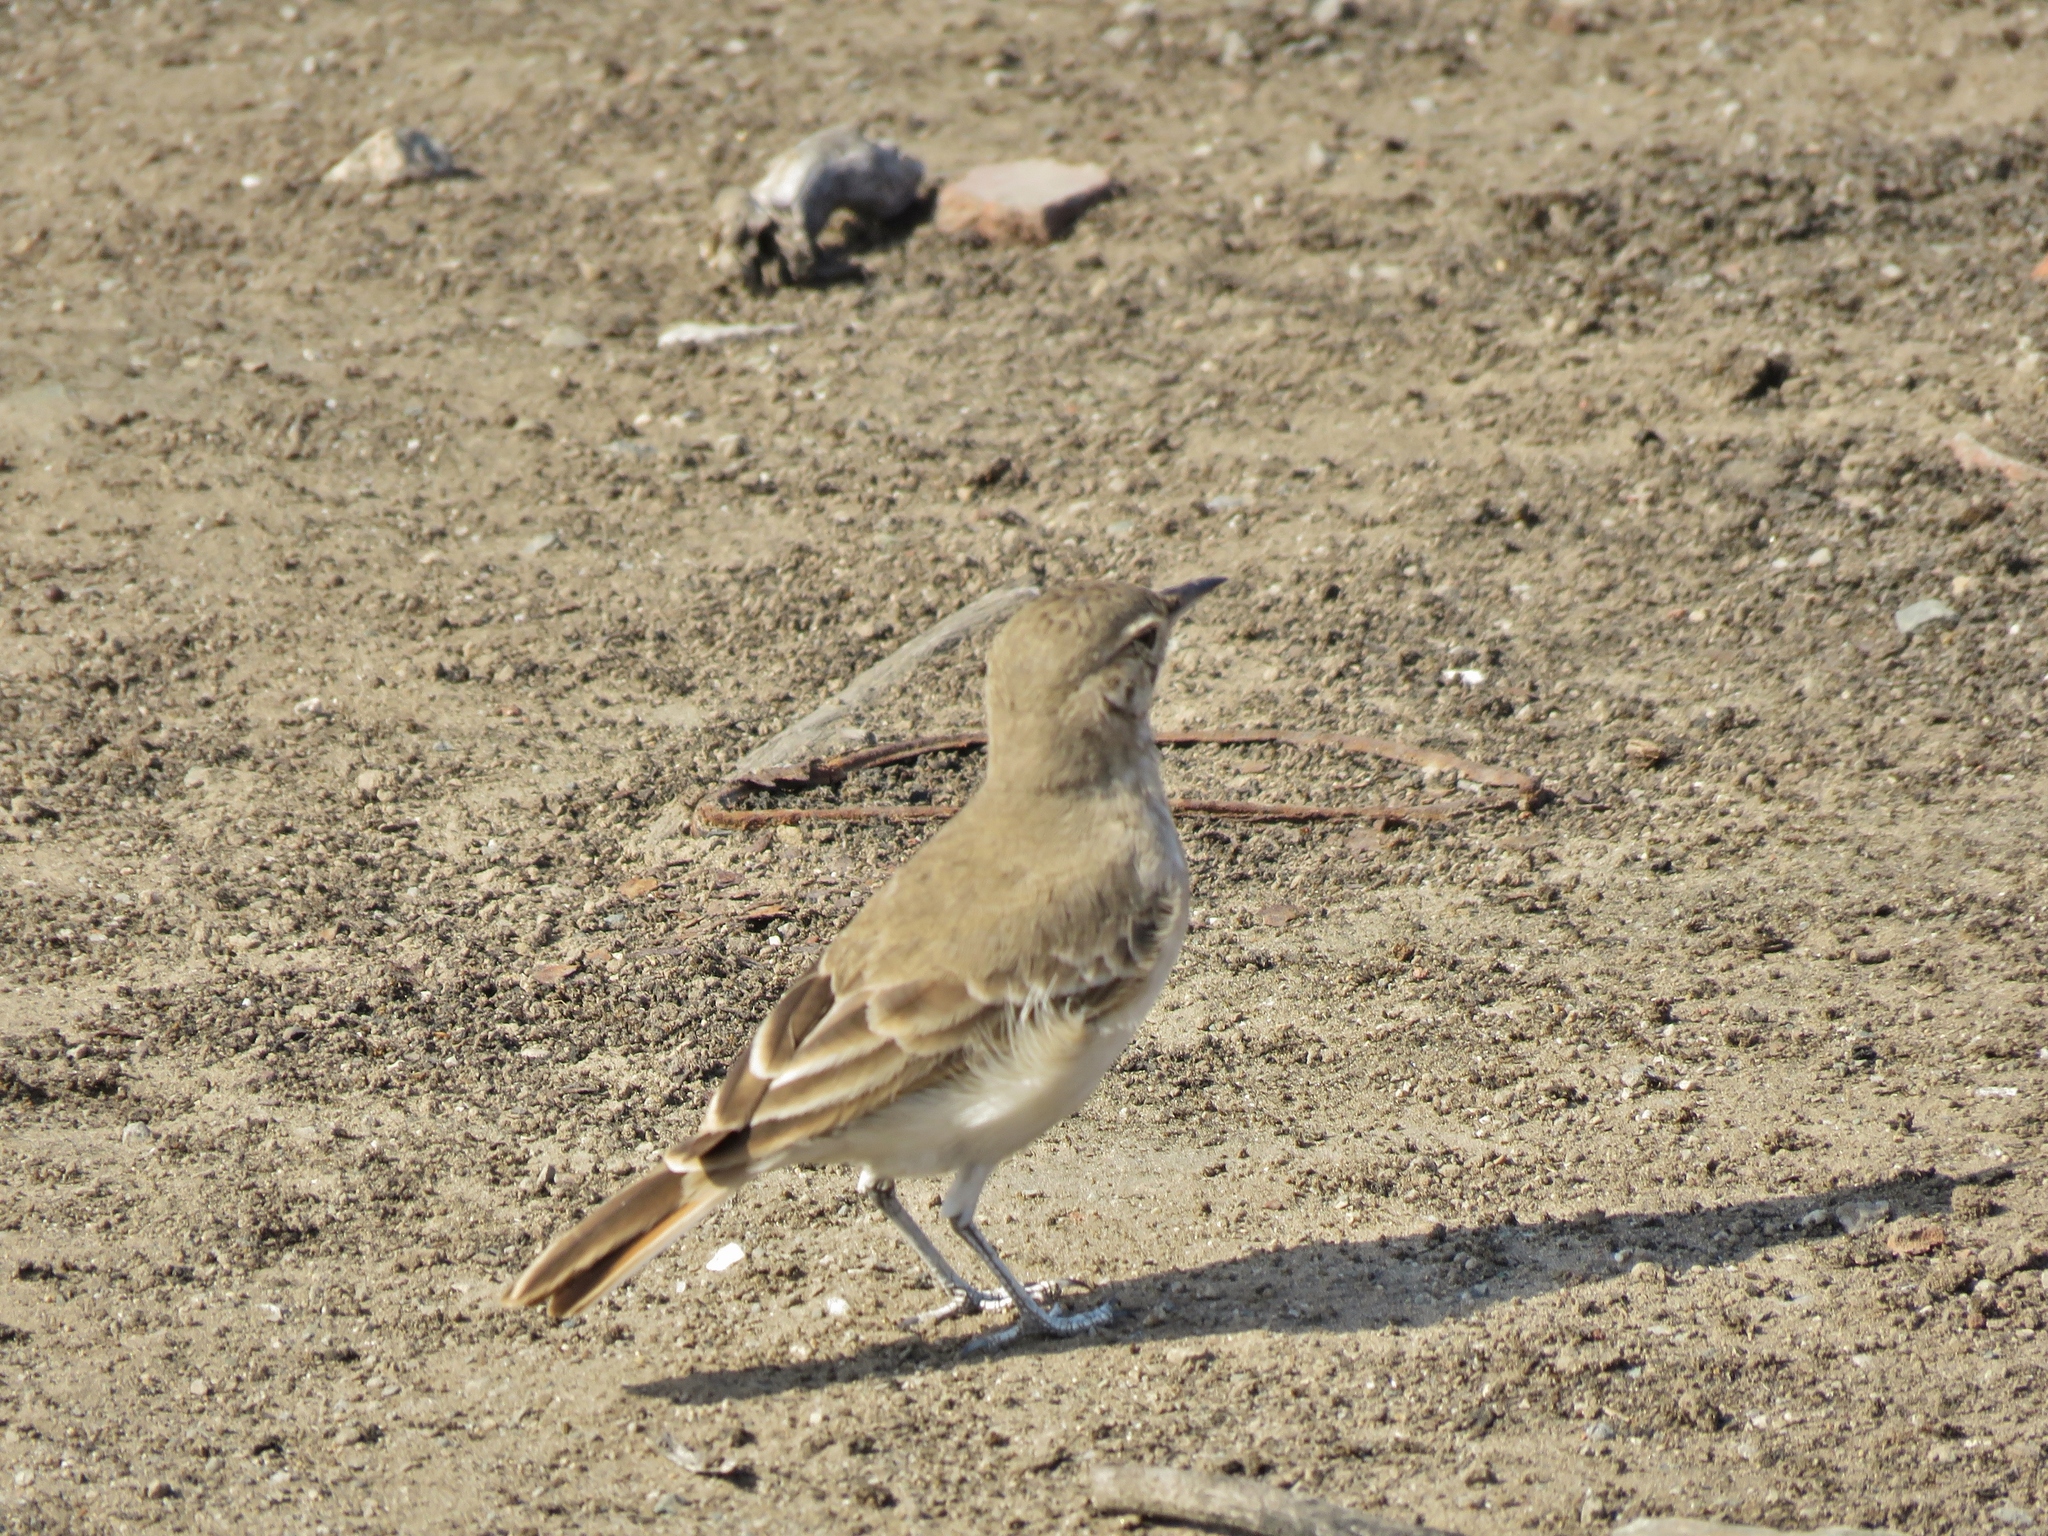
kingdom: Animalia
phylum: Chordata
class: Aves
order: Passeriformes
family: Furnariidae
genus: Geositta
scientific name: Geositta peruviana
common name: Coastal miner
